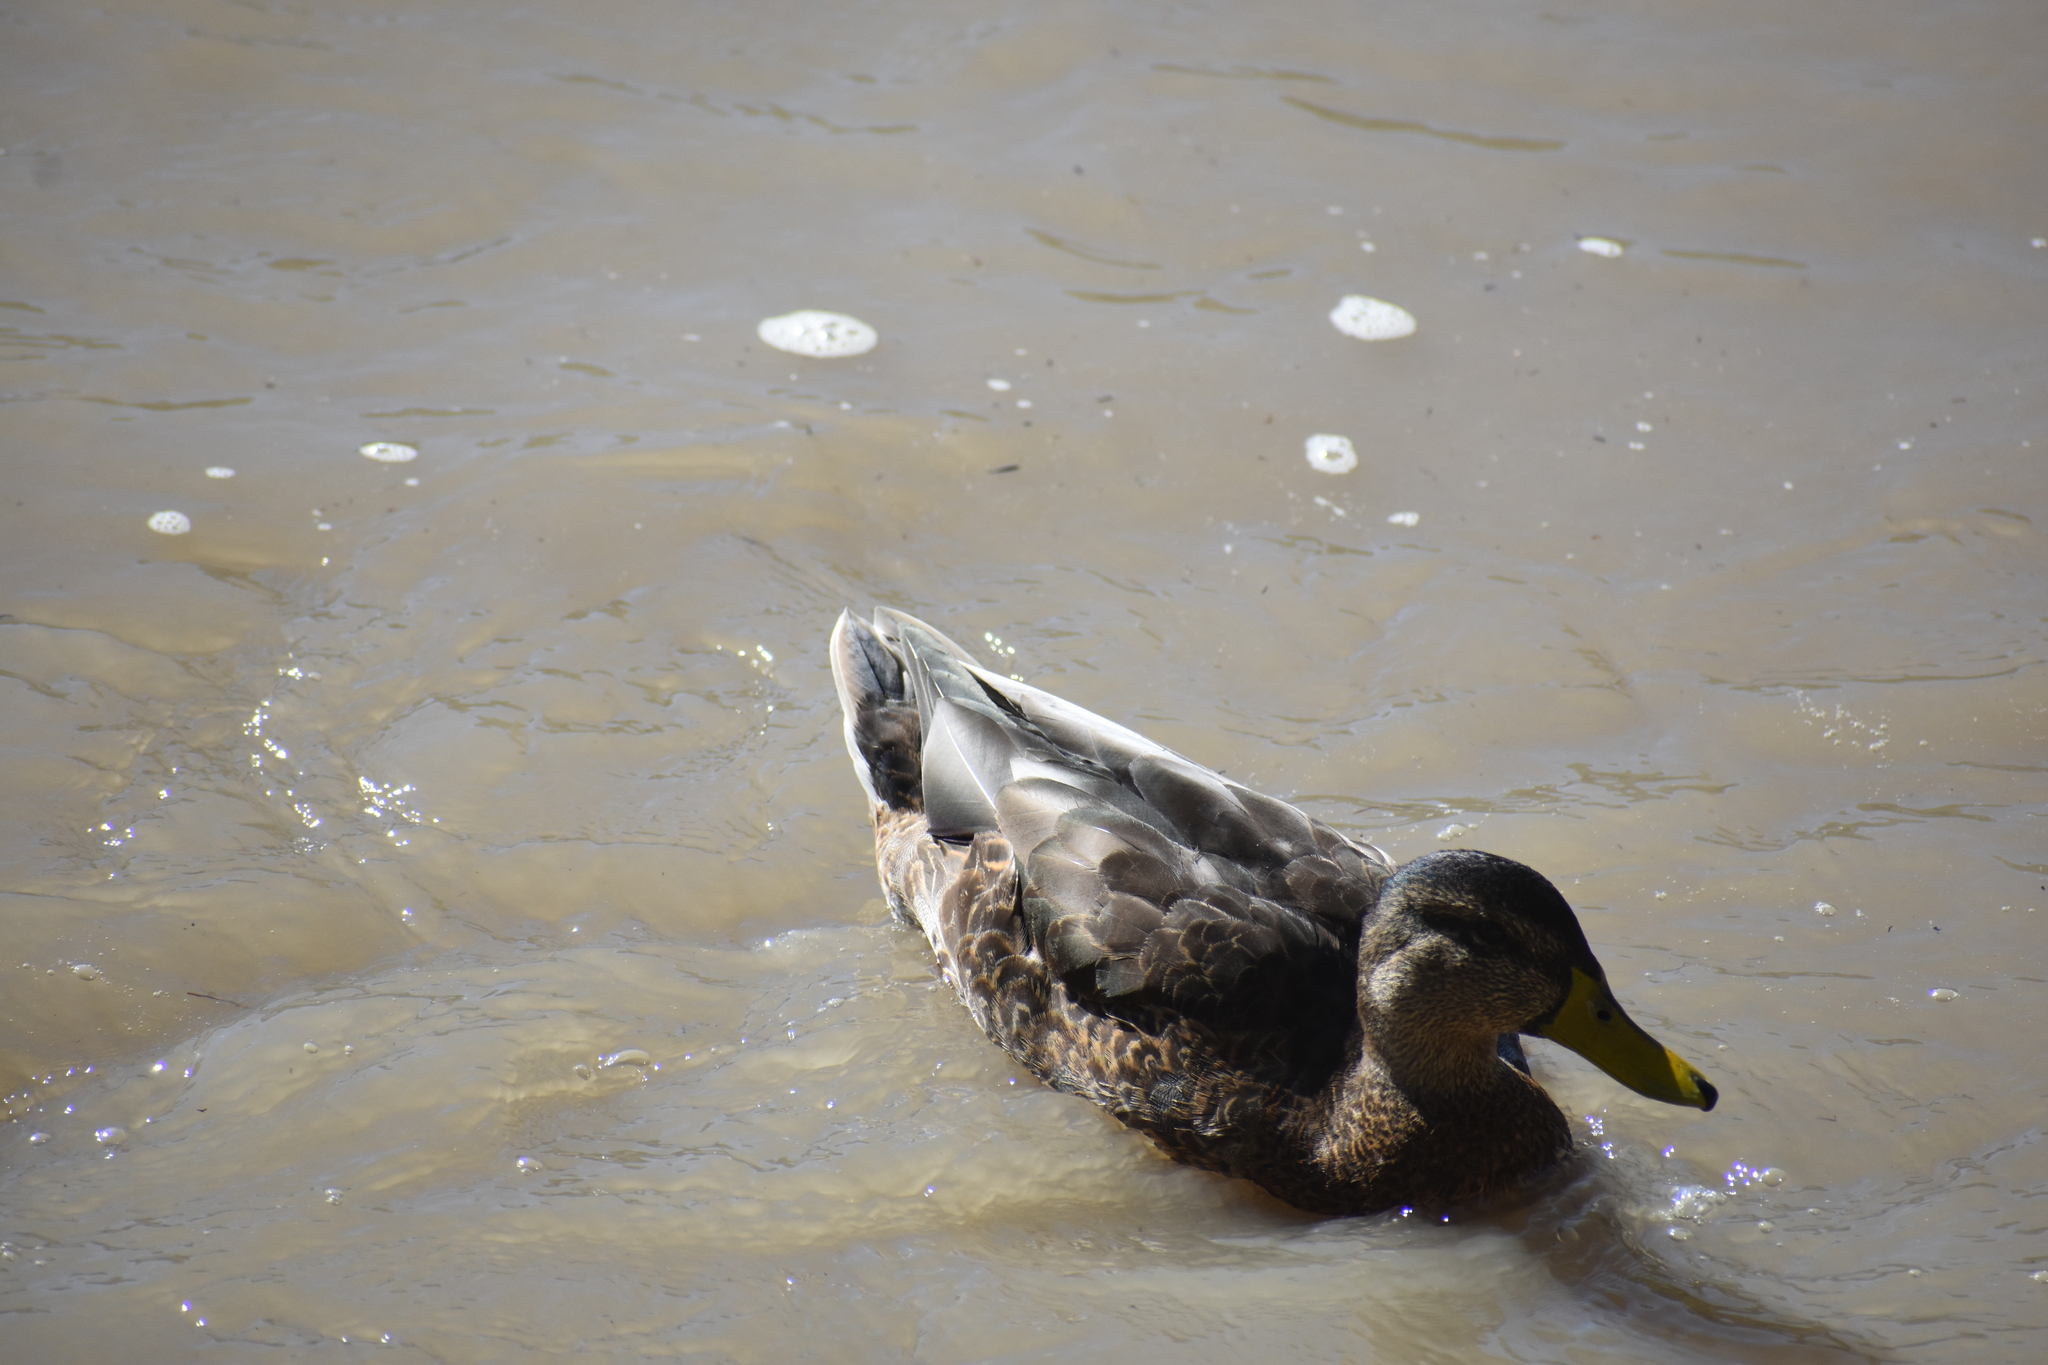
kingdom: Animalia
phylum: Chordata
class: Aves
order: Anseriformes
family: Anatidae
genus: Anas
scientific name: Anas platyrhynchos
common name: Mallard
